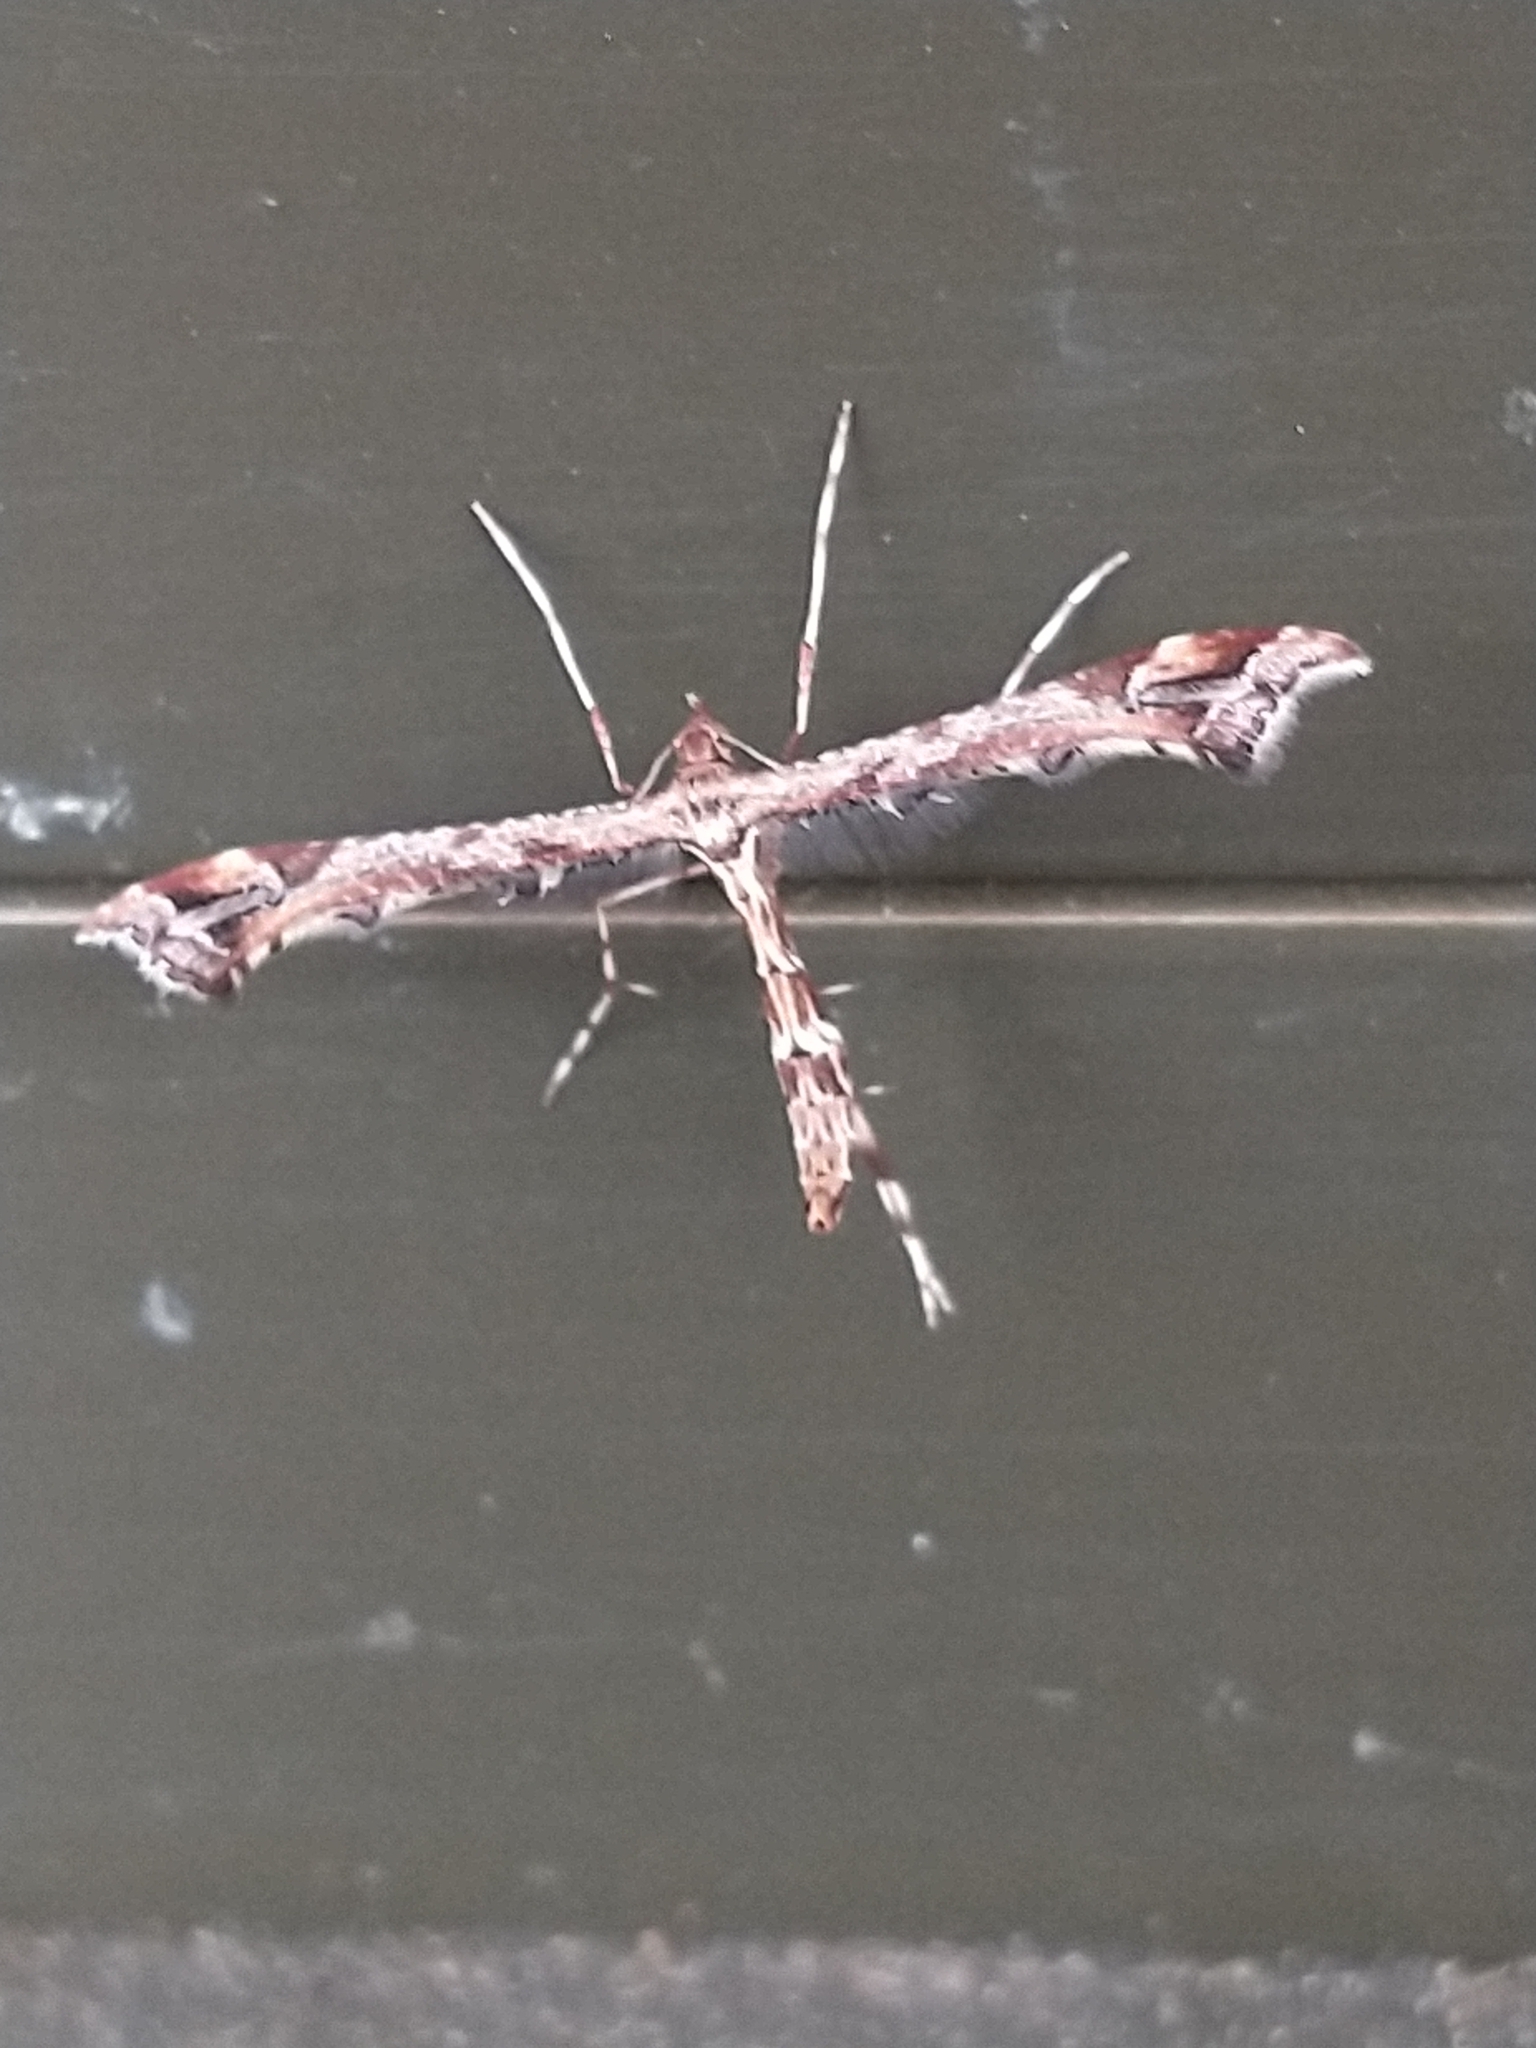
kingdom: Animalia
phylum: Arthropoda
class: Insecta
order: Lepidoptera
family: Pterophoridae
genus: Amblyptilia
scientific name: Amblyptilia acanthadactyla
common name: Beautiful plume
